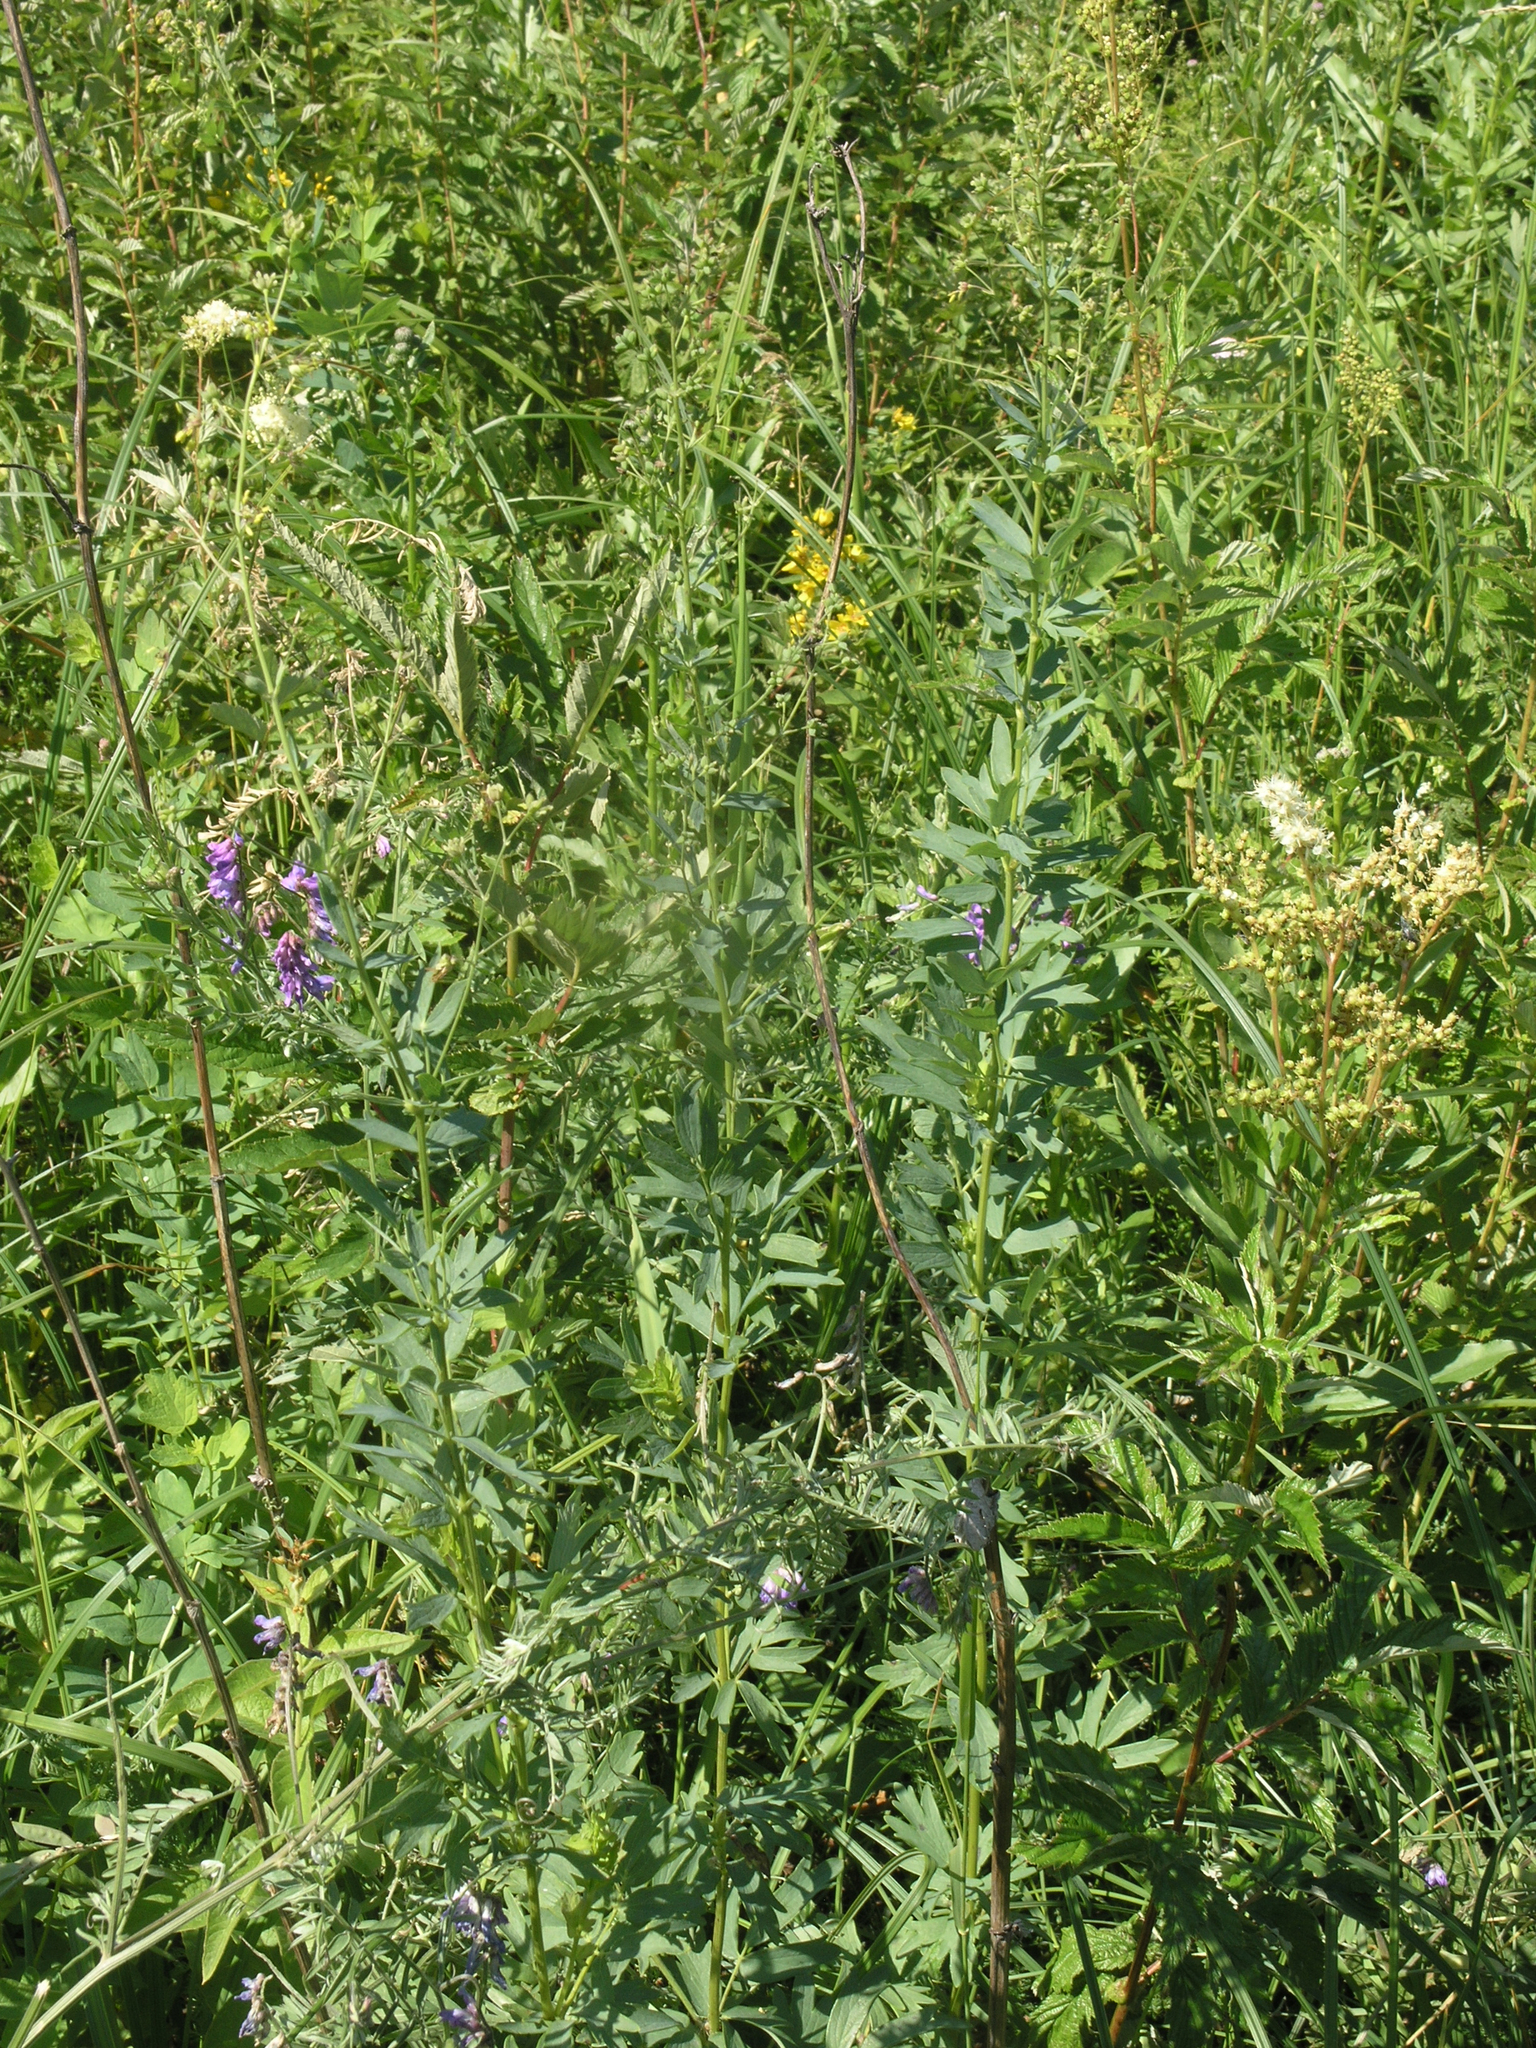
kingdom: Plantae
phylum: Tracheophyta
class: Magnoliopsida
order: Ranunculales
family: Ranunculaceae
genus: Thalictrum
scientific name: Thalictrum simplex
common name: Small meadow-rue
